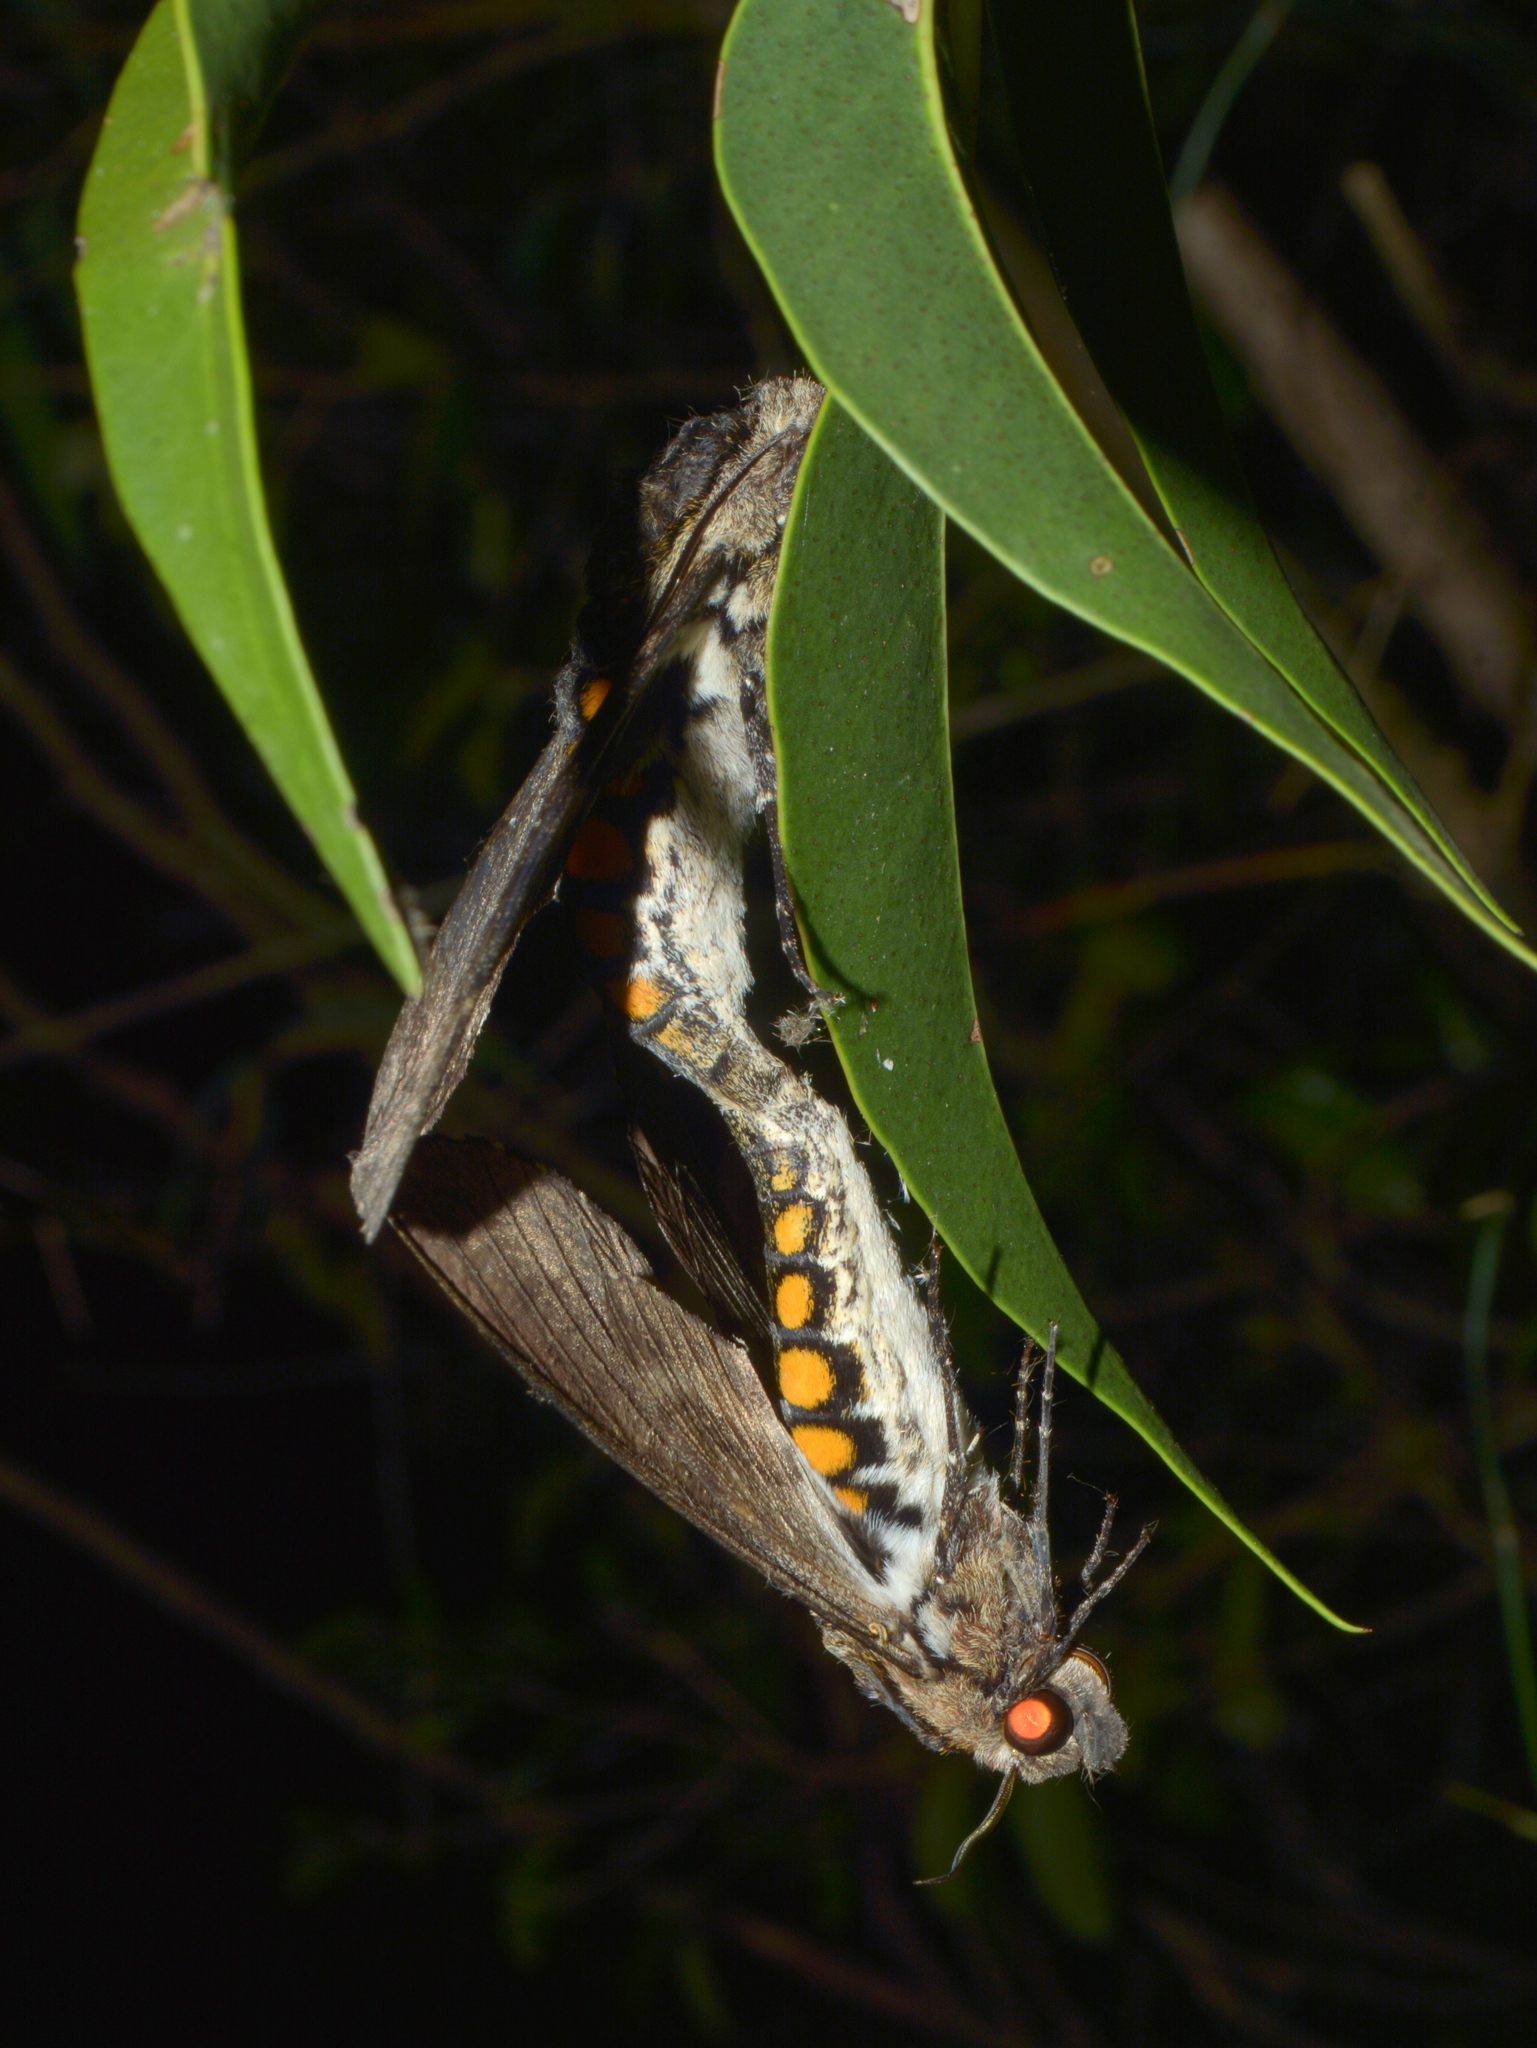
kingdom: Animalia
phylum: Arthropoda
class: Insecta
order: Lepidoptera
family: Sphingidae
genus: Manduca
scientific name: Manduca exiguus
